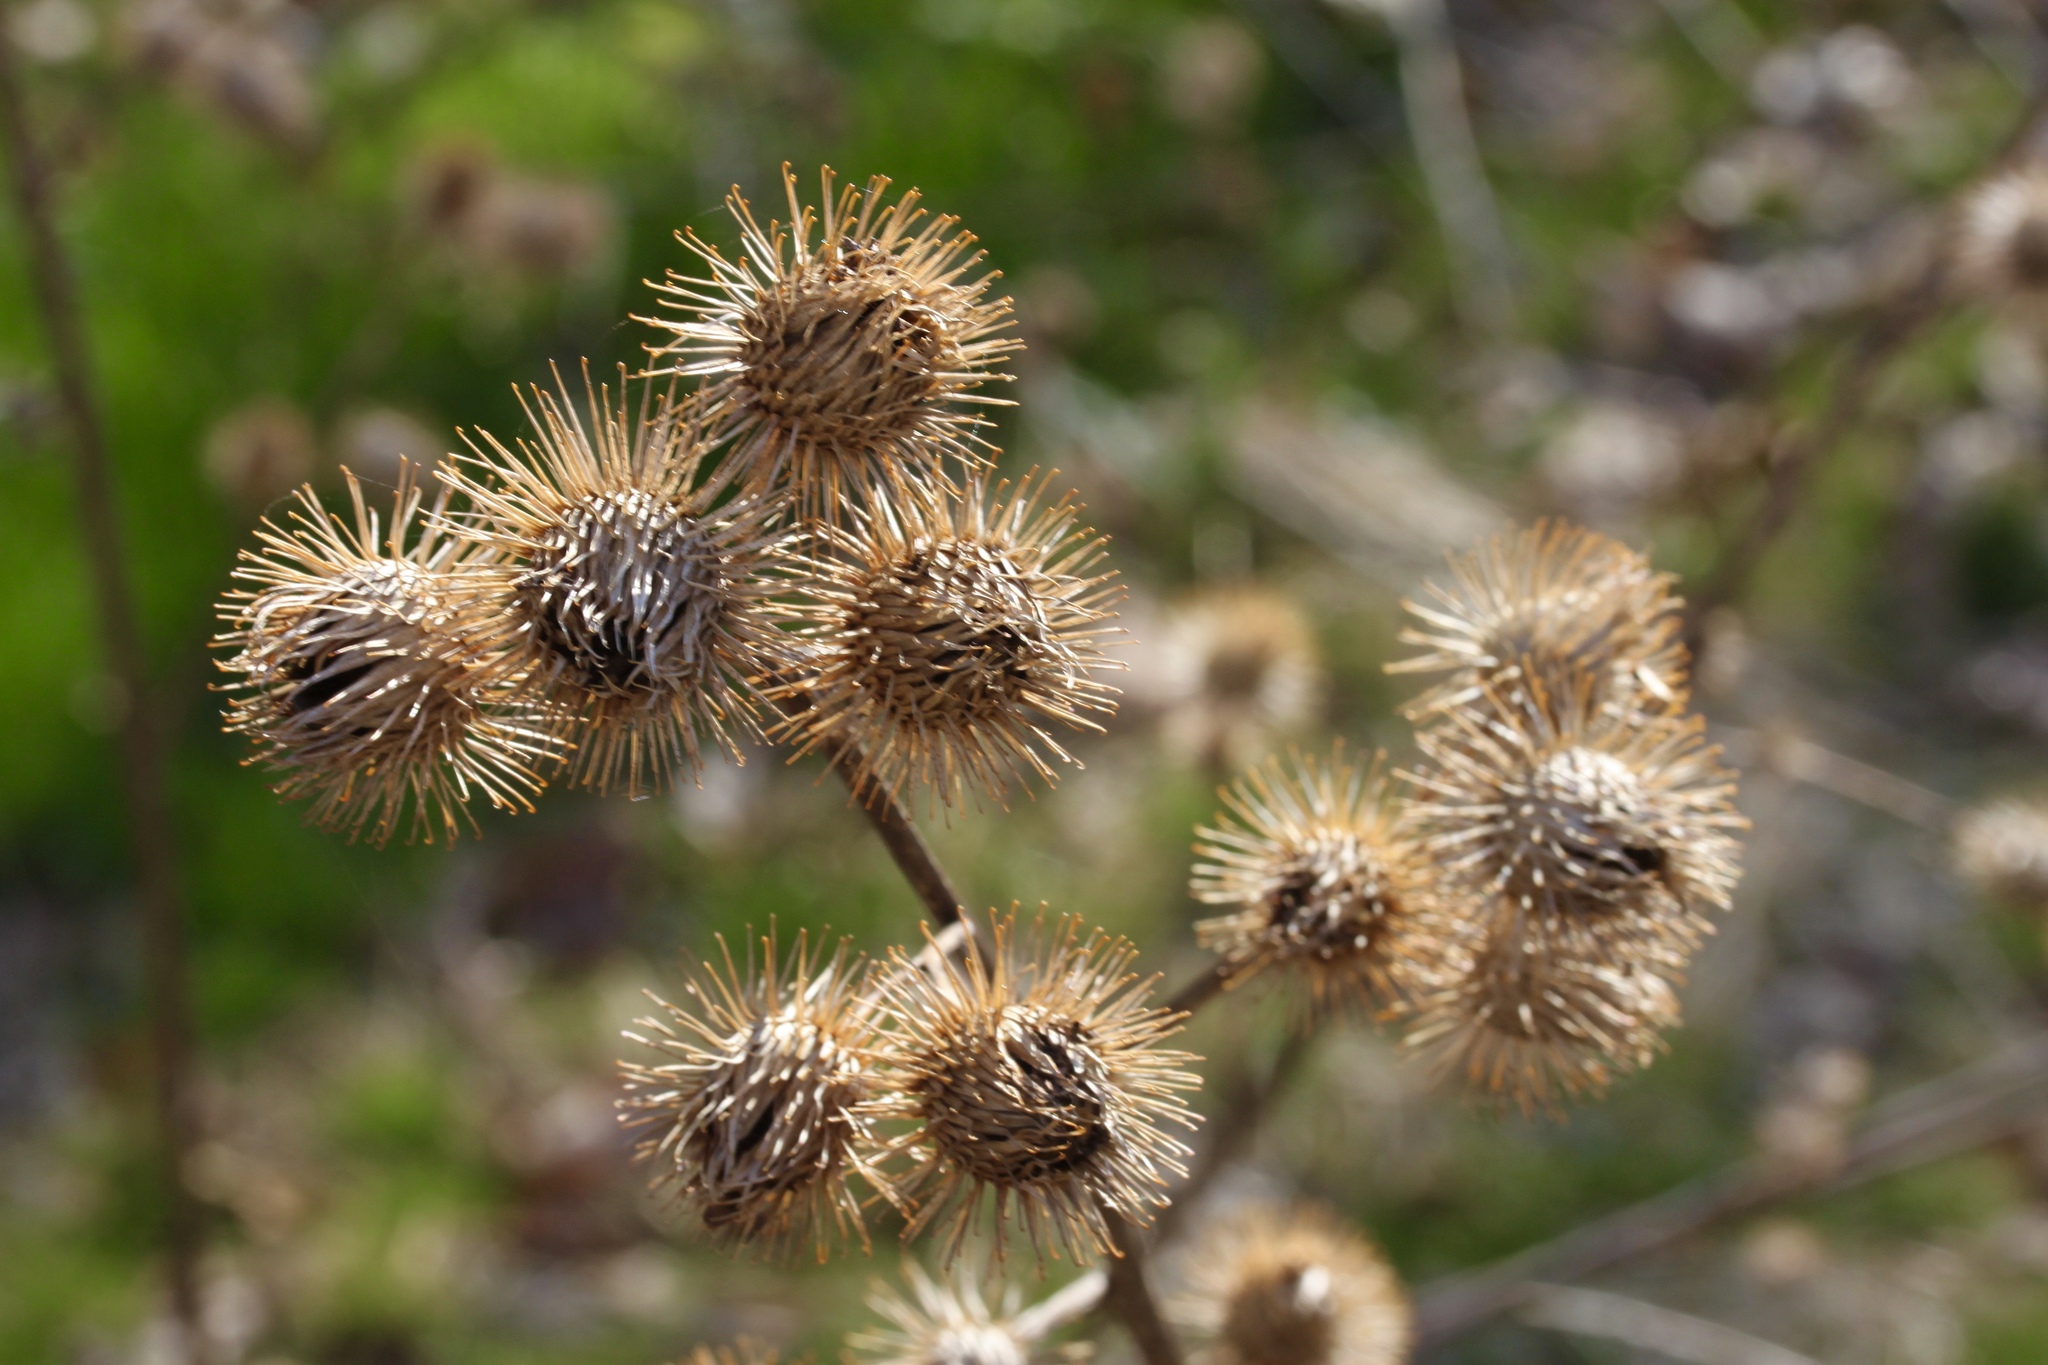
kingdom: Plantae
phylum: Tracheophyta
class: Magnoliopsida
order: Asterales
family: Asteraceae
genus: Arctium
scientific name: Arctium lappa
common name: Greater burdock
